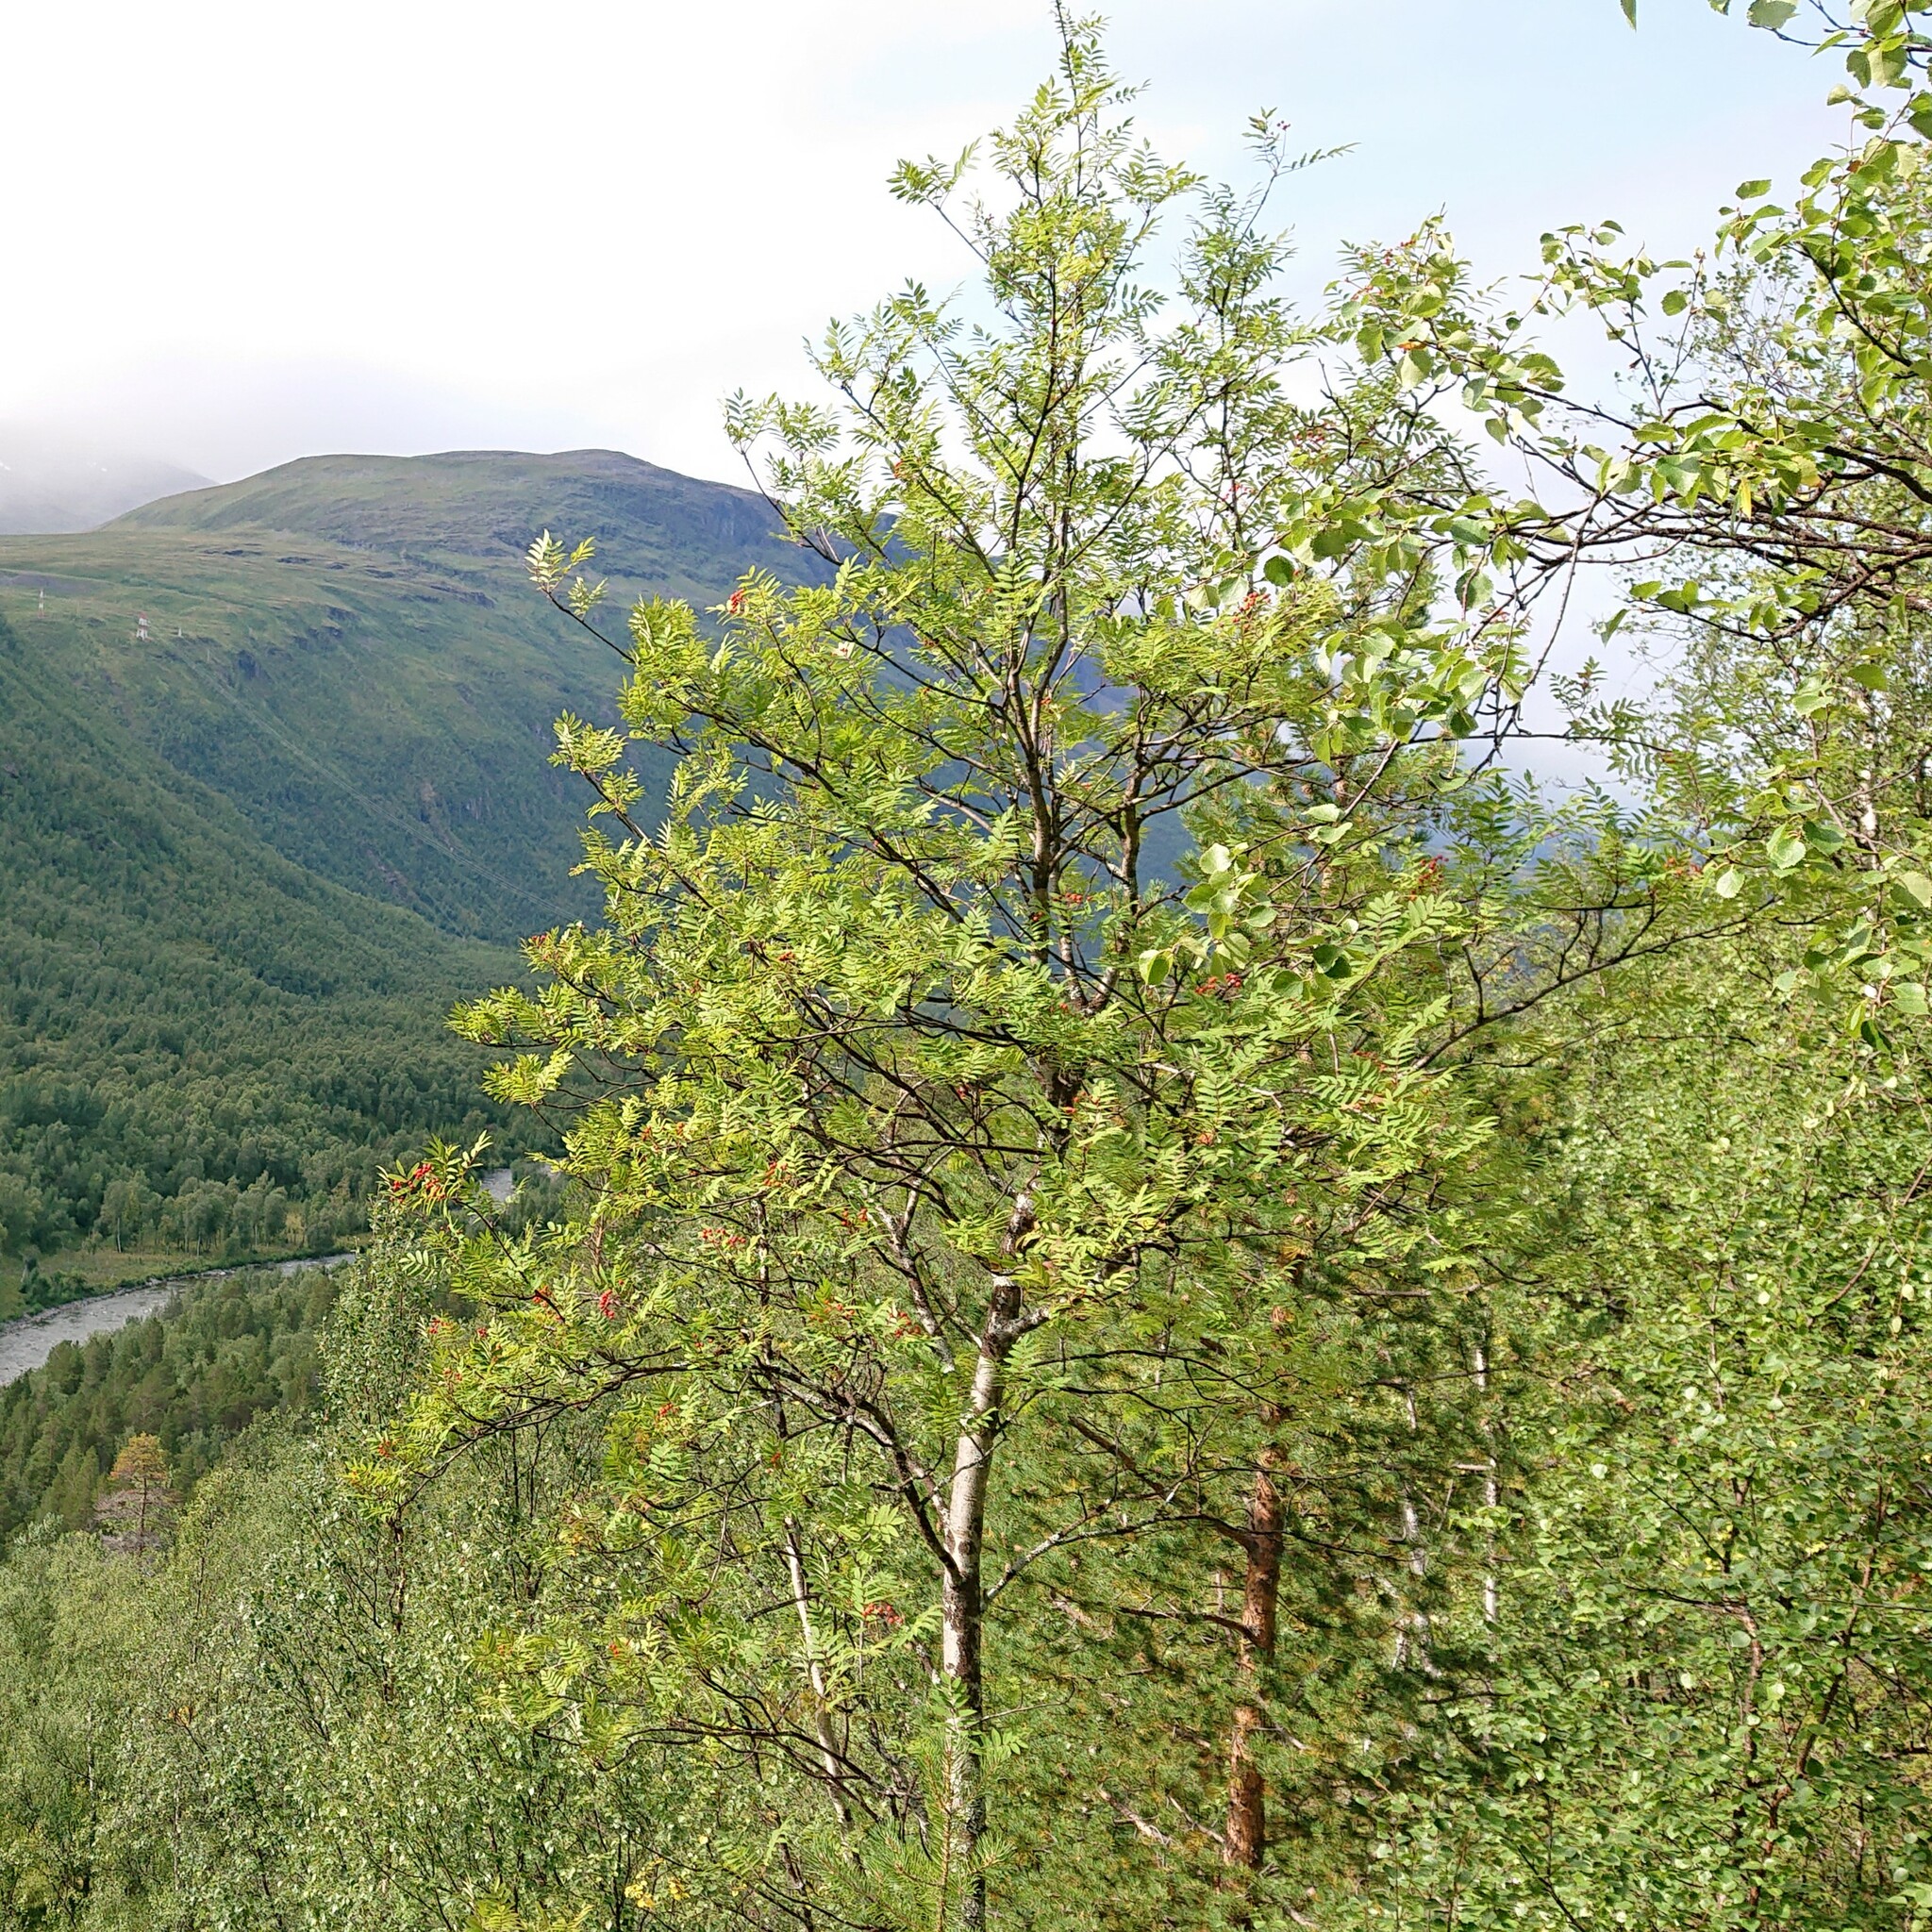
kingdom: Plantae
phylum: Tracheophyta
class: Magnoliopsida
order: Rosales
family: Rosaceae
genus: Sorbus
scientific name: Sorbus aucuparia
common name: Rowan
